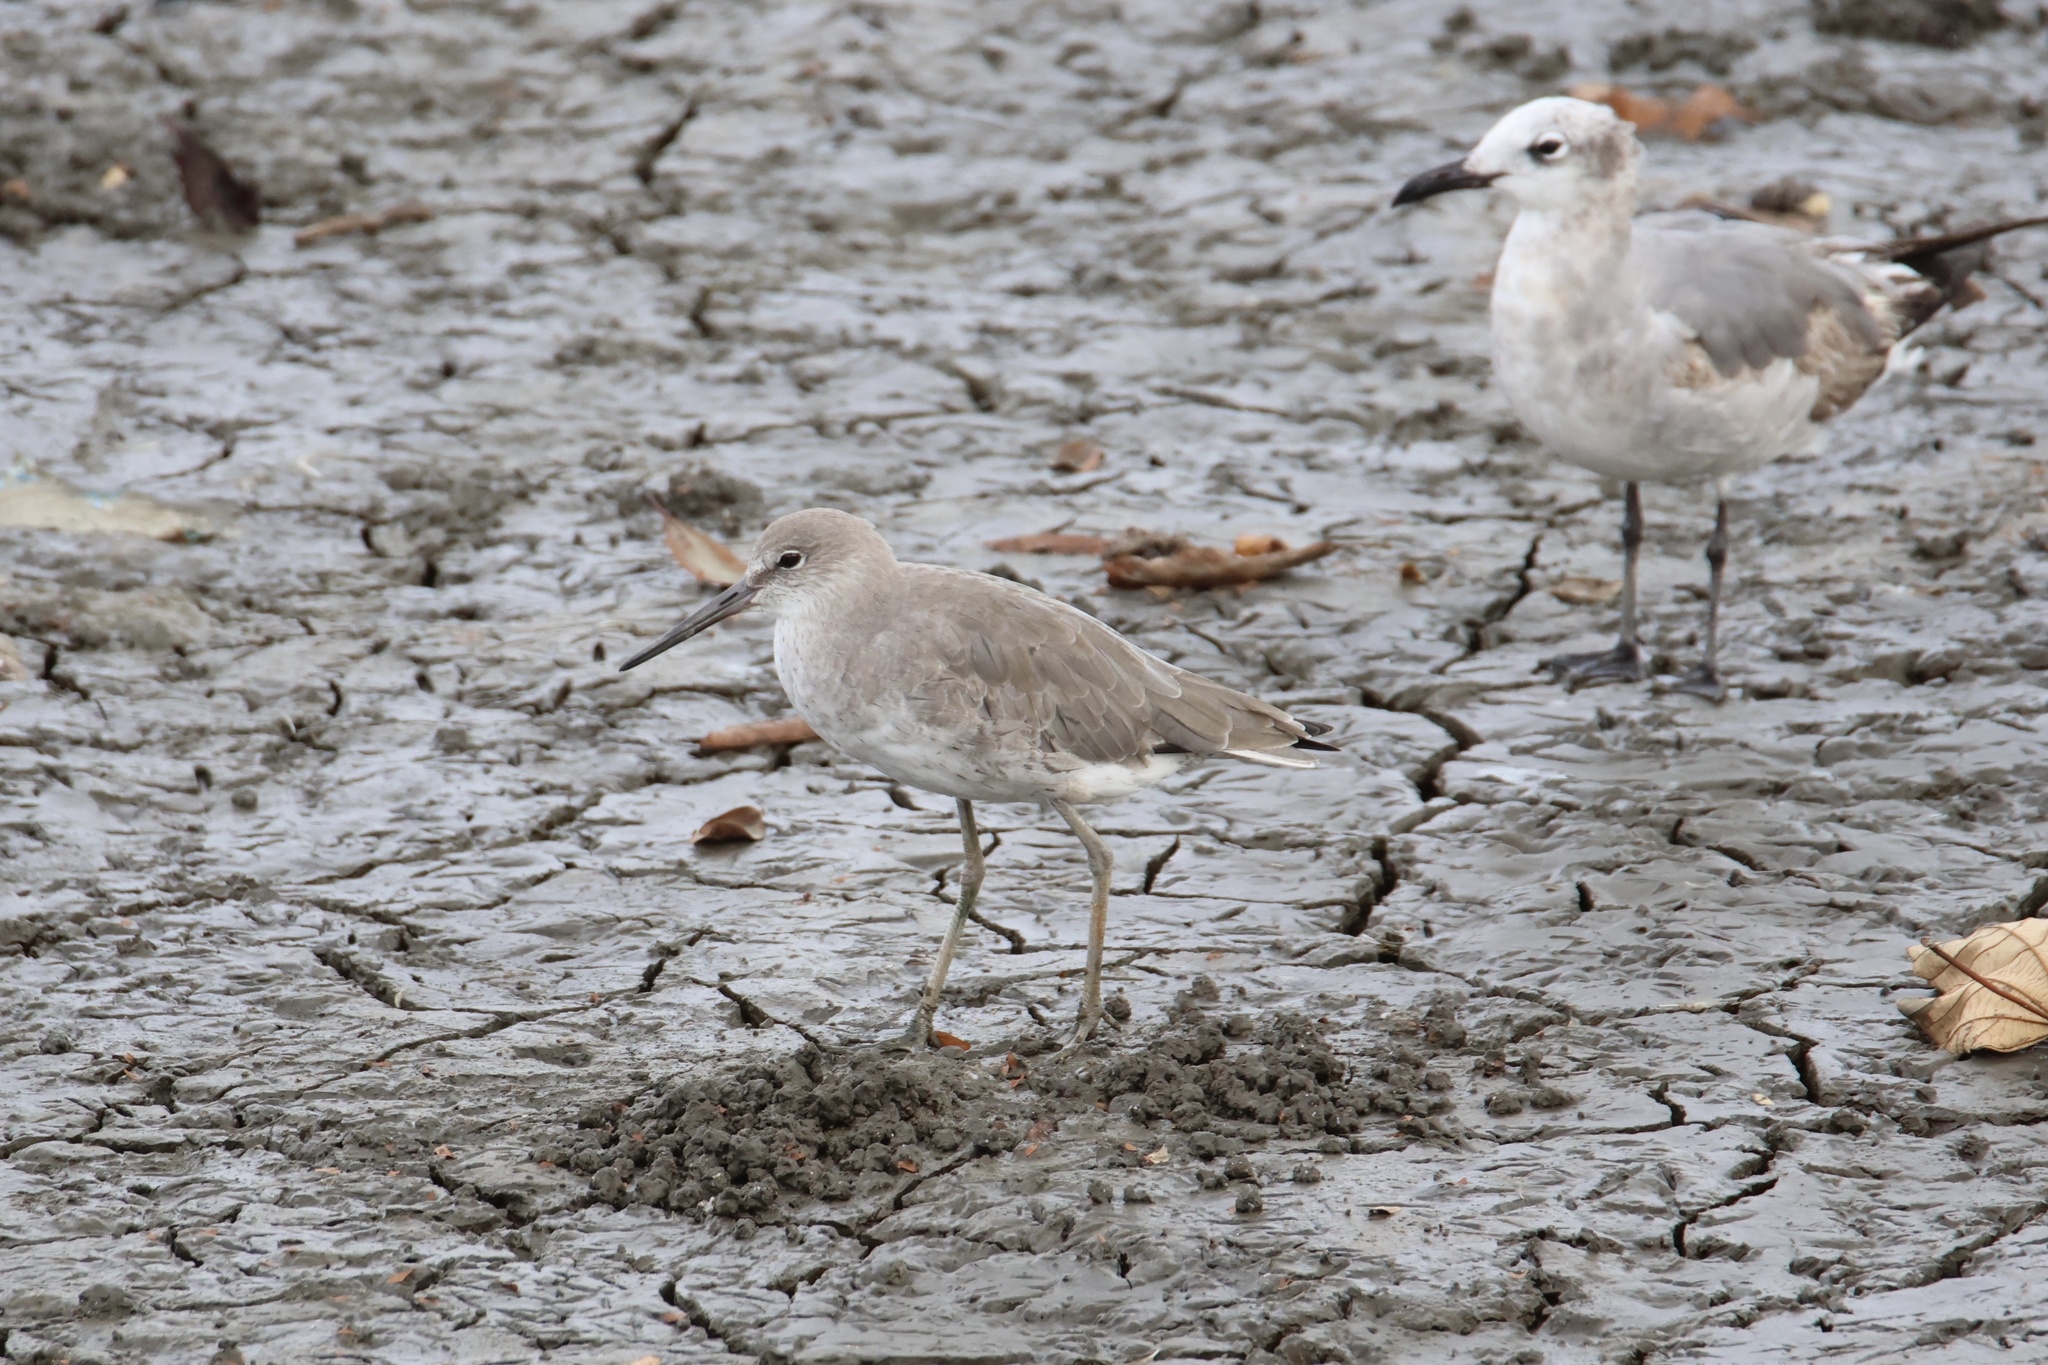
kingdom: Animalia
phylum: Chordata
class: Aves
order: Charadriiformes
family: Scolopacidae
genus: Tringa
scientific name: Tringa semipalmata
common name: Willet
